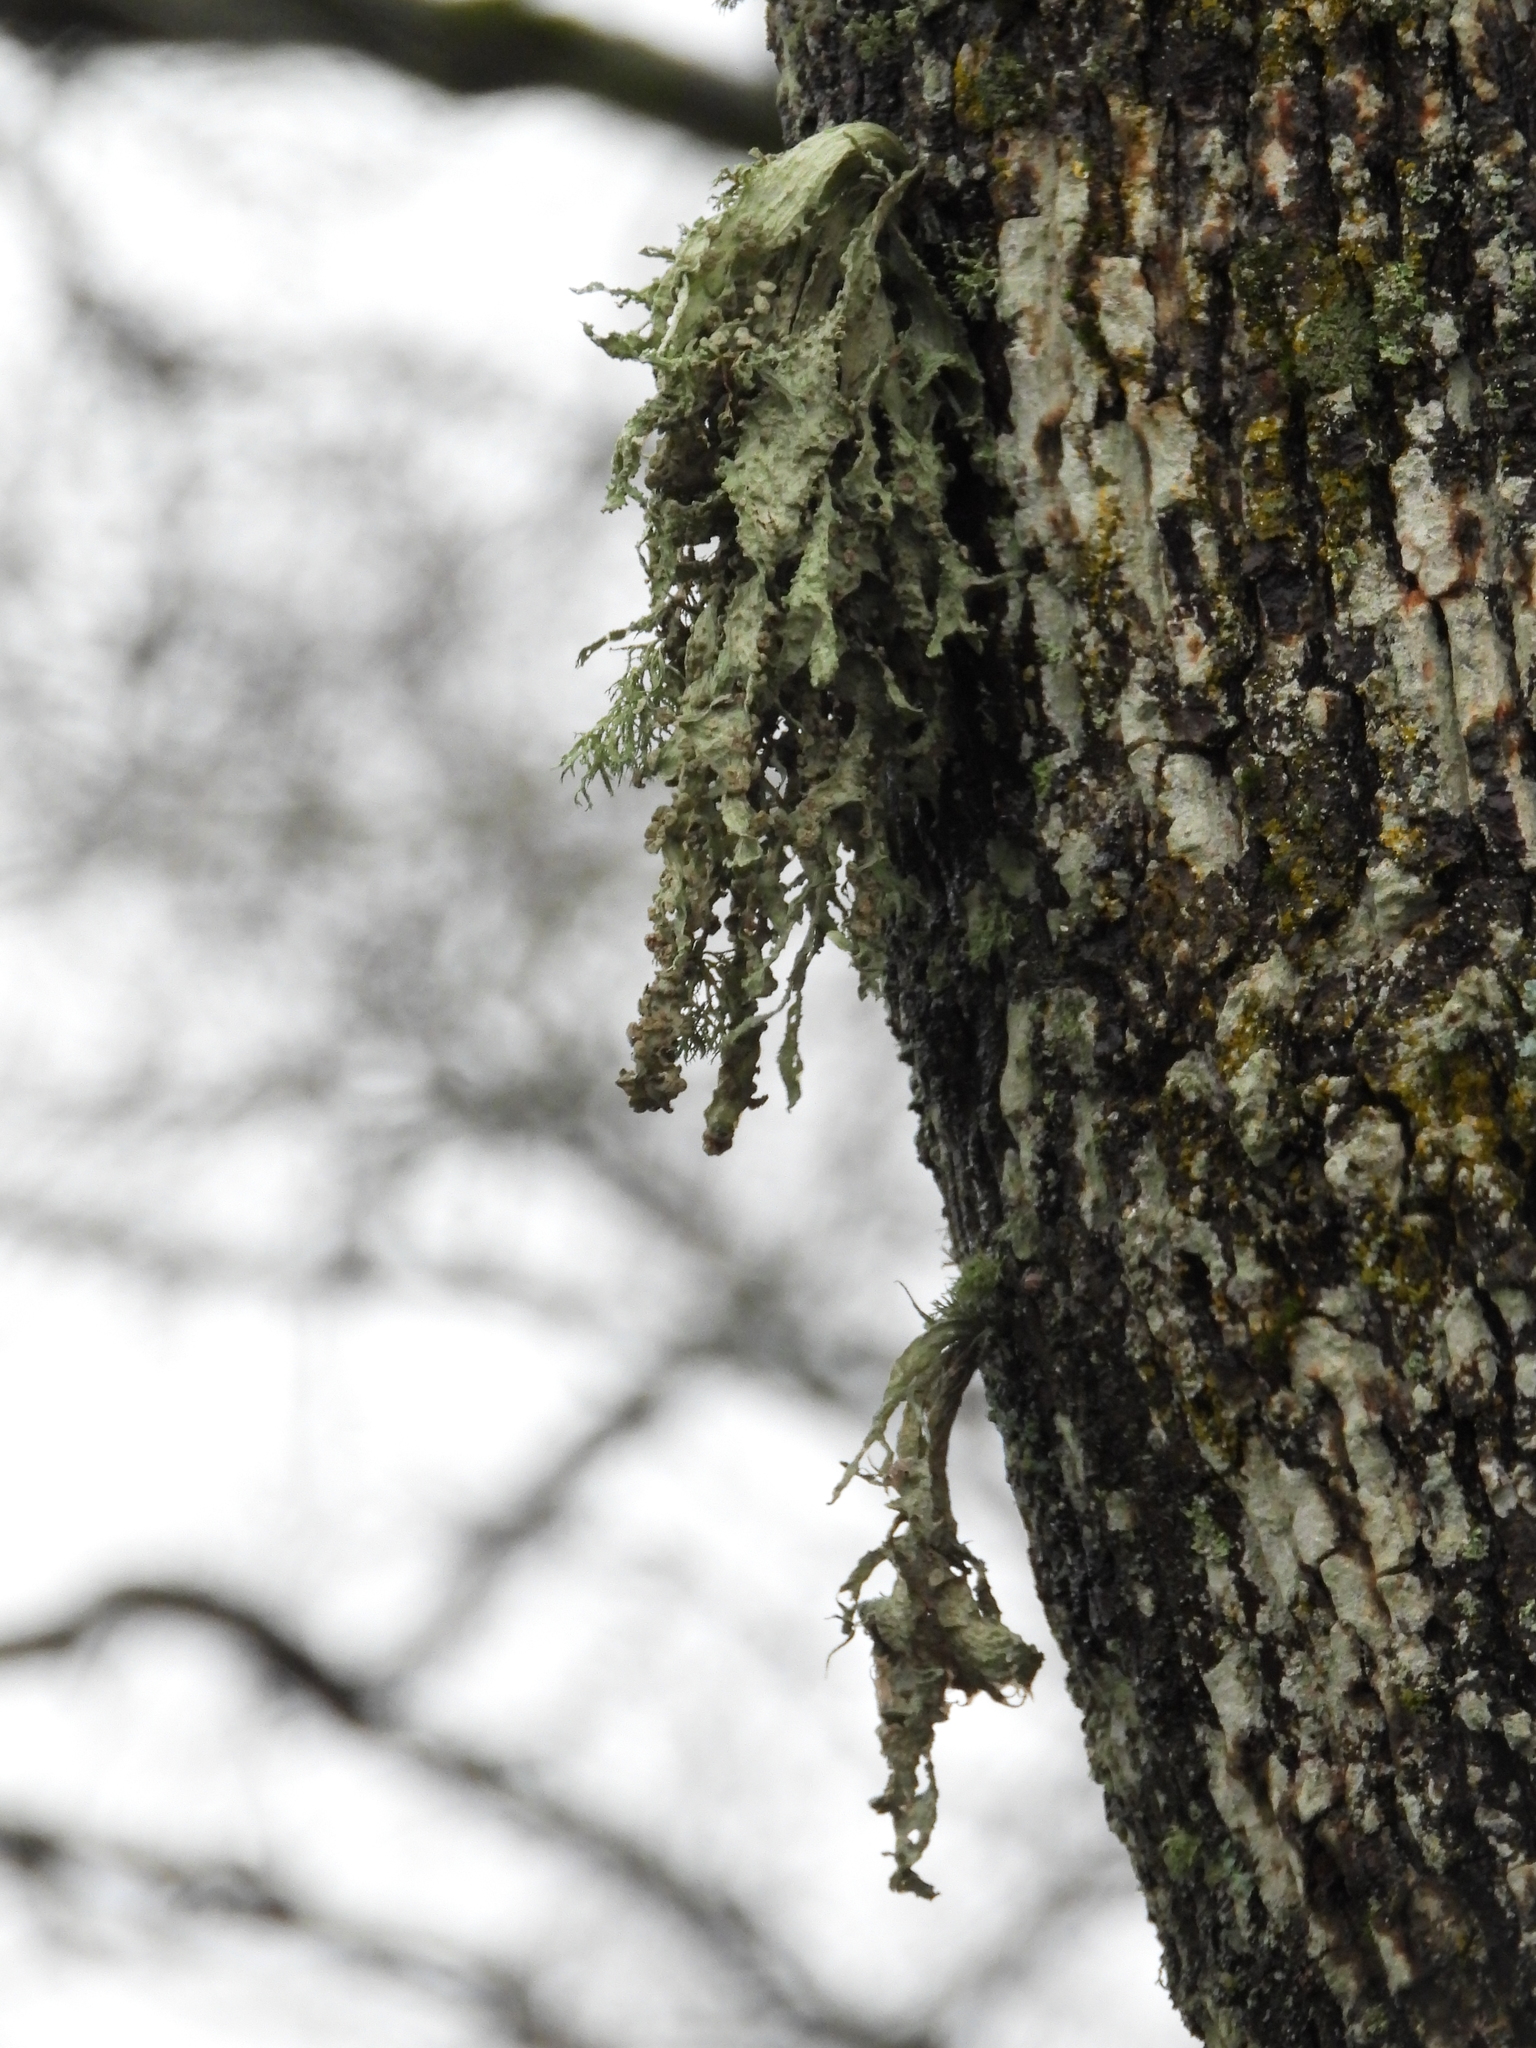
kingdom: Fungi
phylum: Ascomycota
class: Lecanoromycetes
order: Lecanorales
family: Ramalinaceae
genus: Ramalina
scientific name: Ramalina fraxinea
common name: Cartilage lichen
